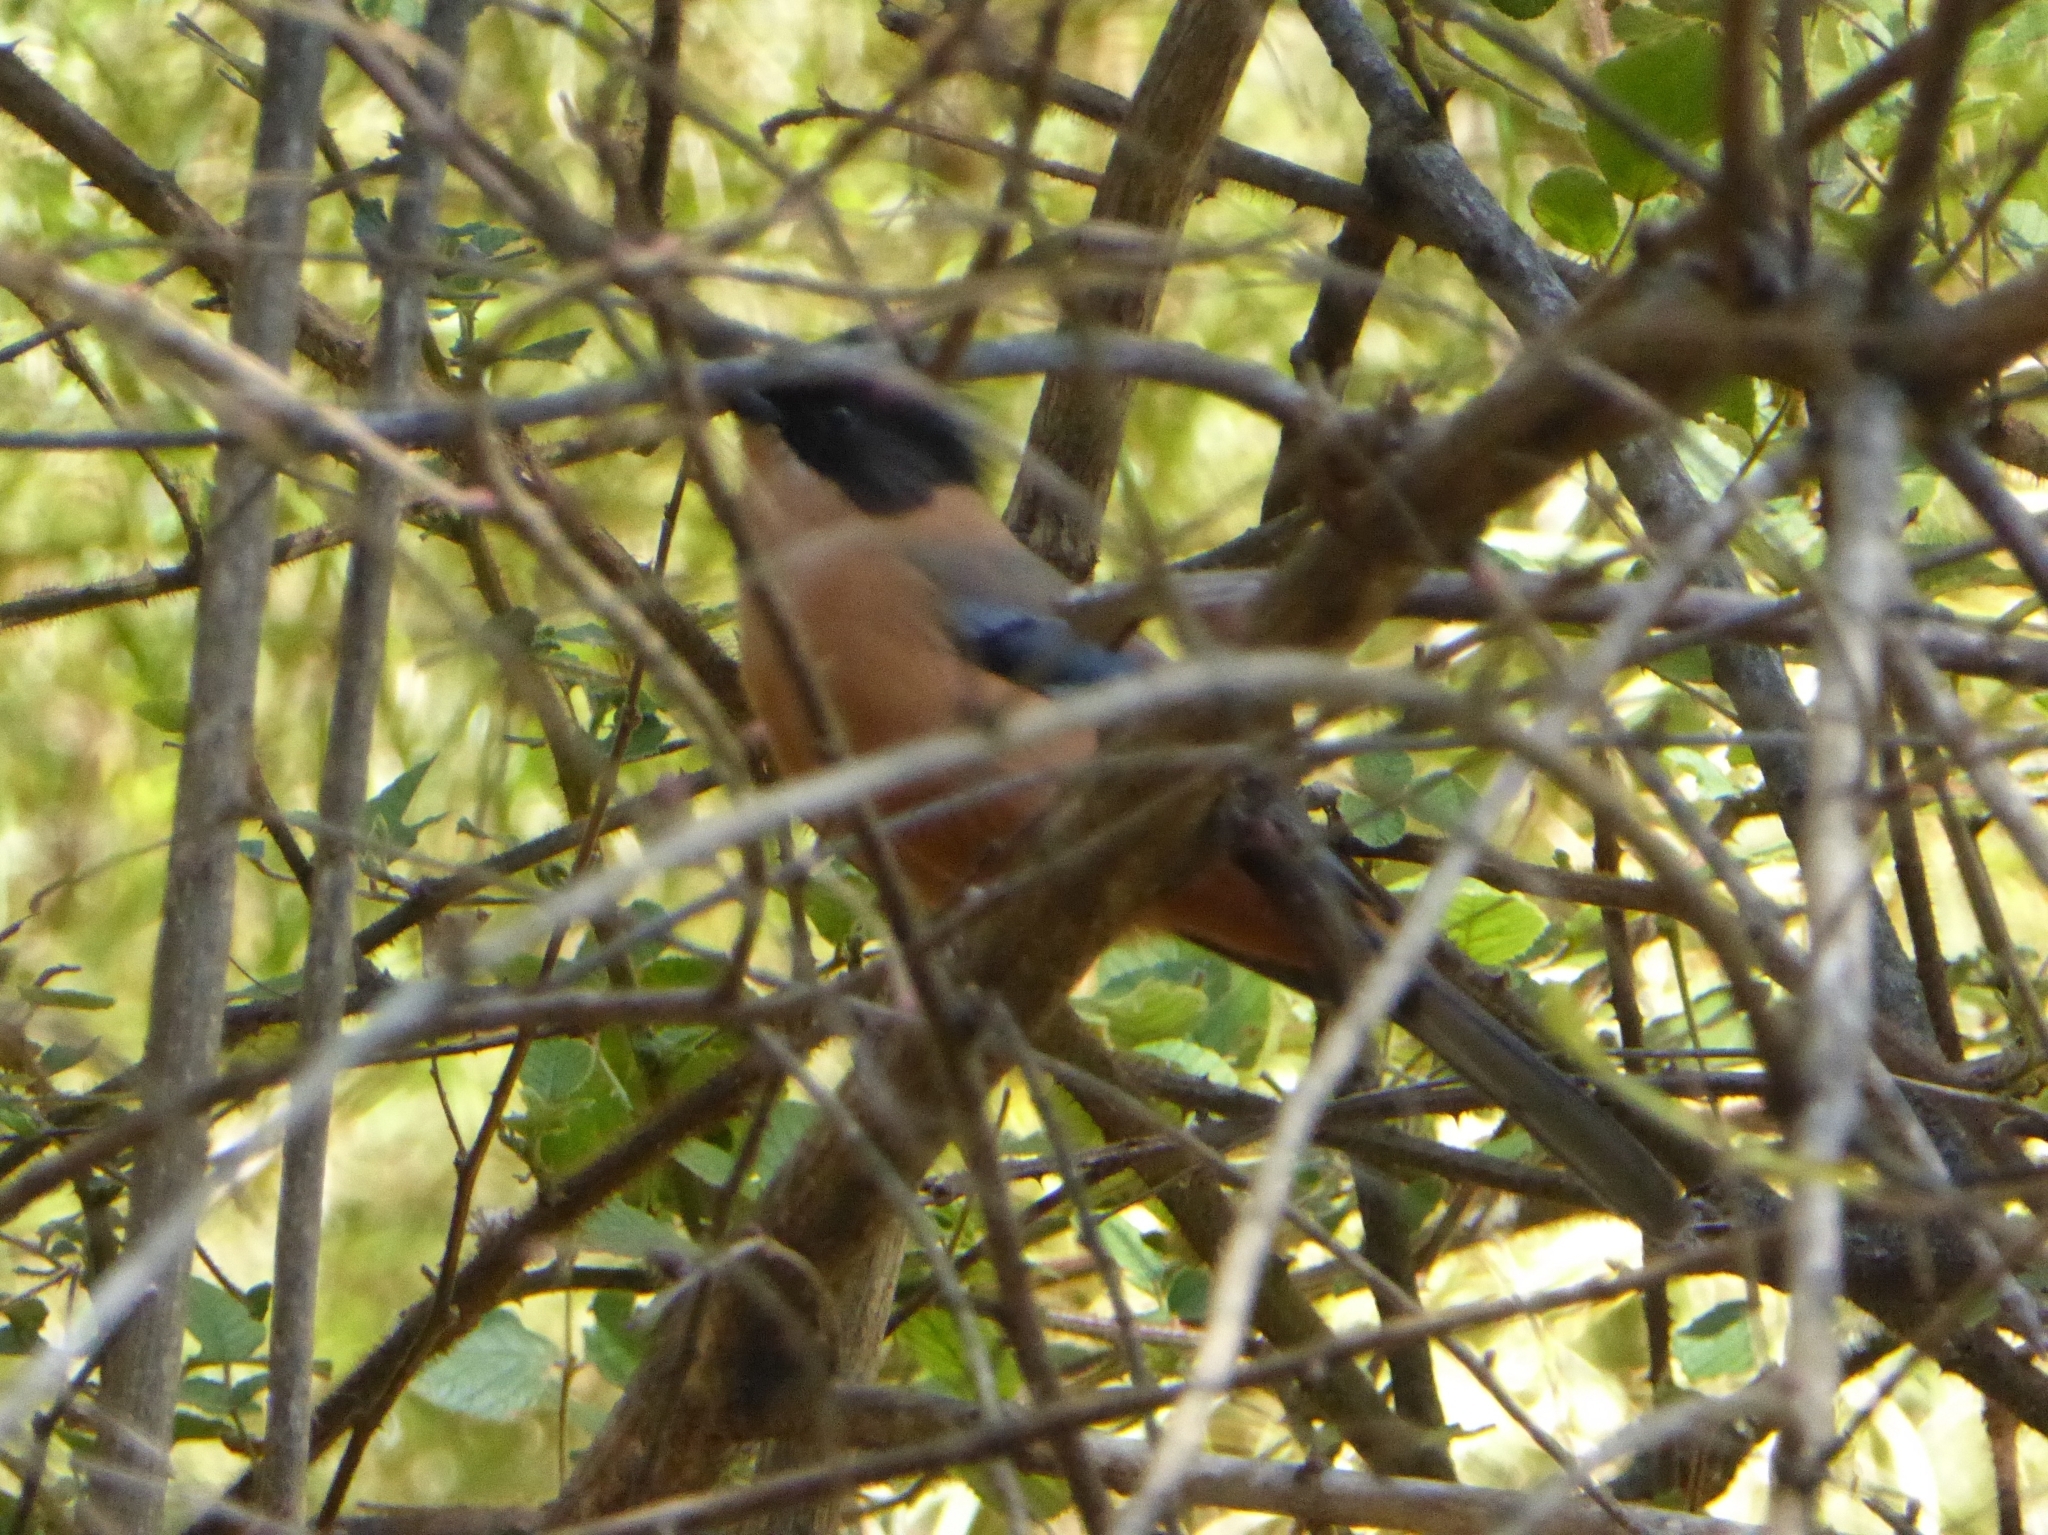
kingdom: Animalia
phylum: Chordata
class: Aves
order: Passeriformes
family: Leiothrichidae
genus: Heterophasia
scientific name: Heterophasia capistrata
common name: Rufous sibia
